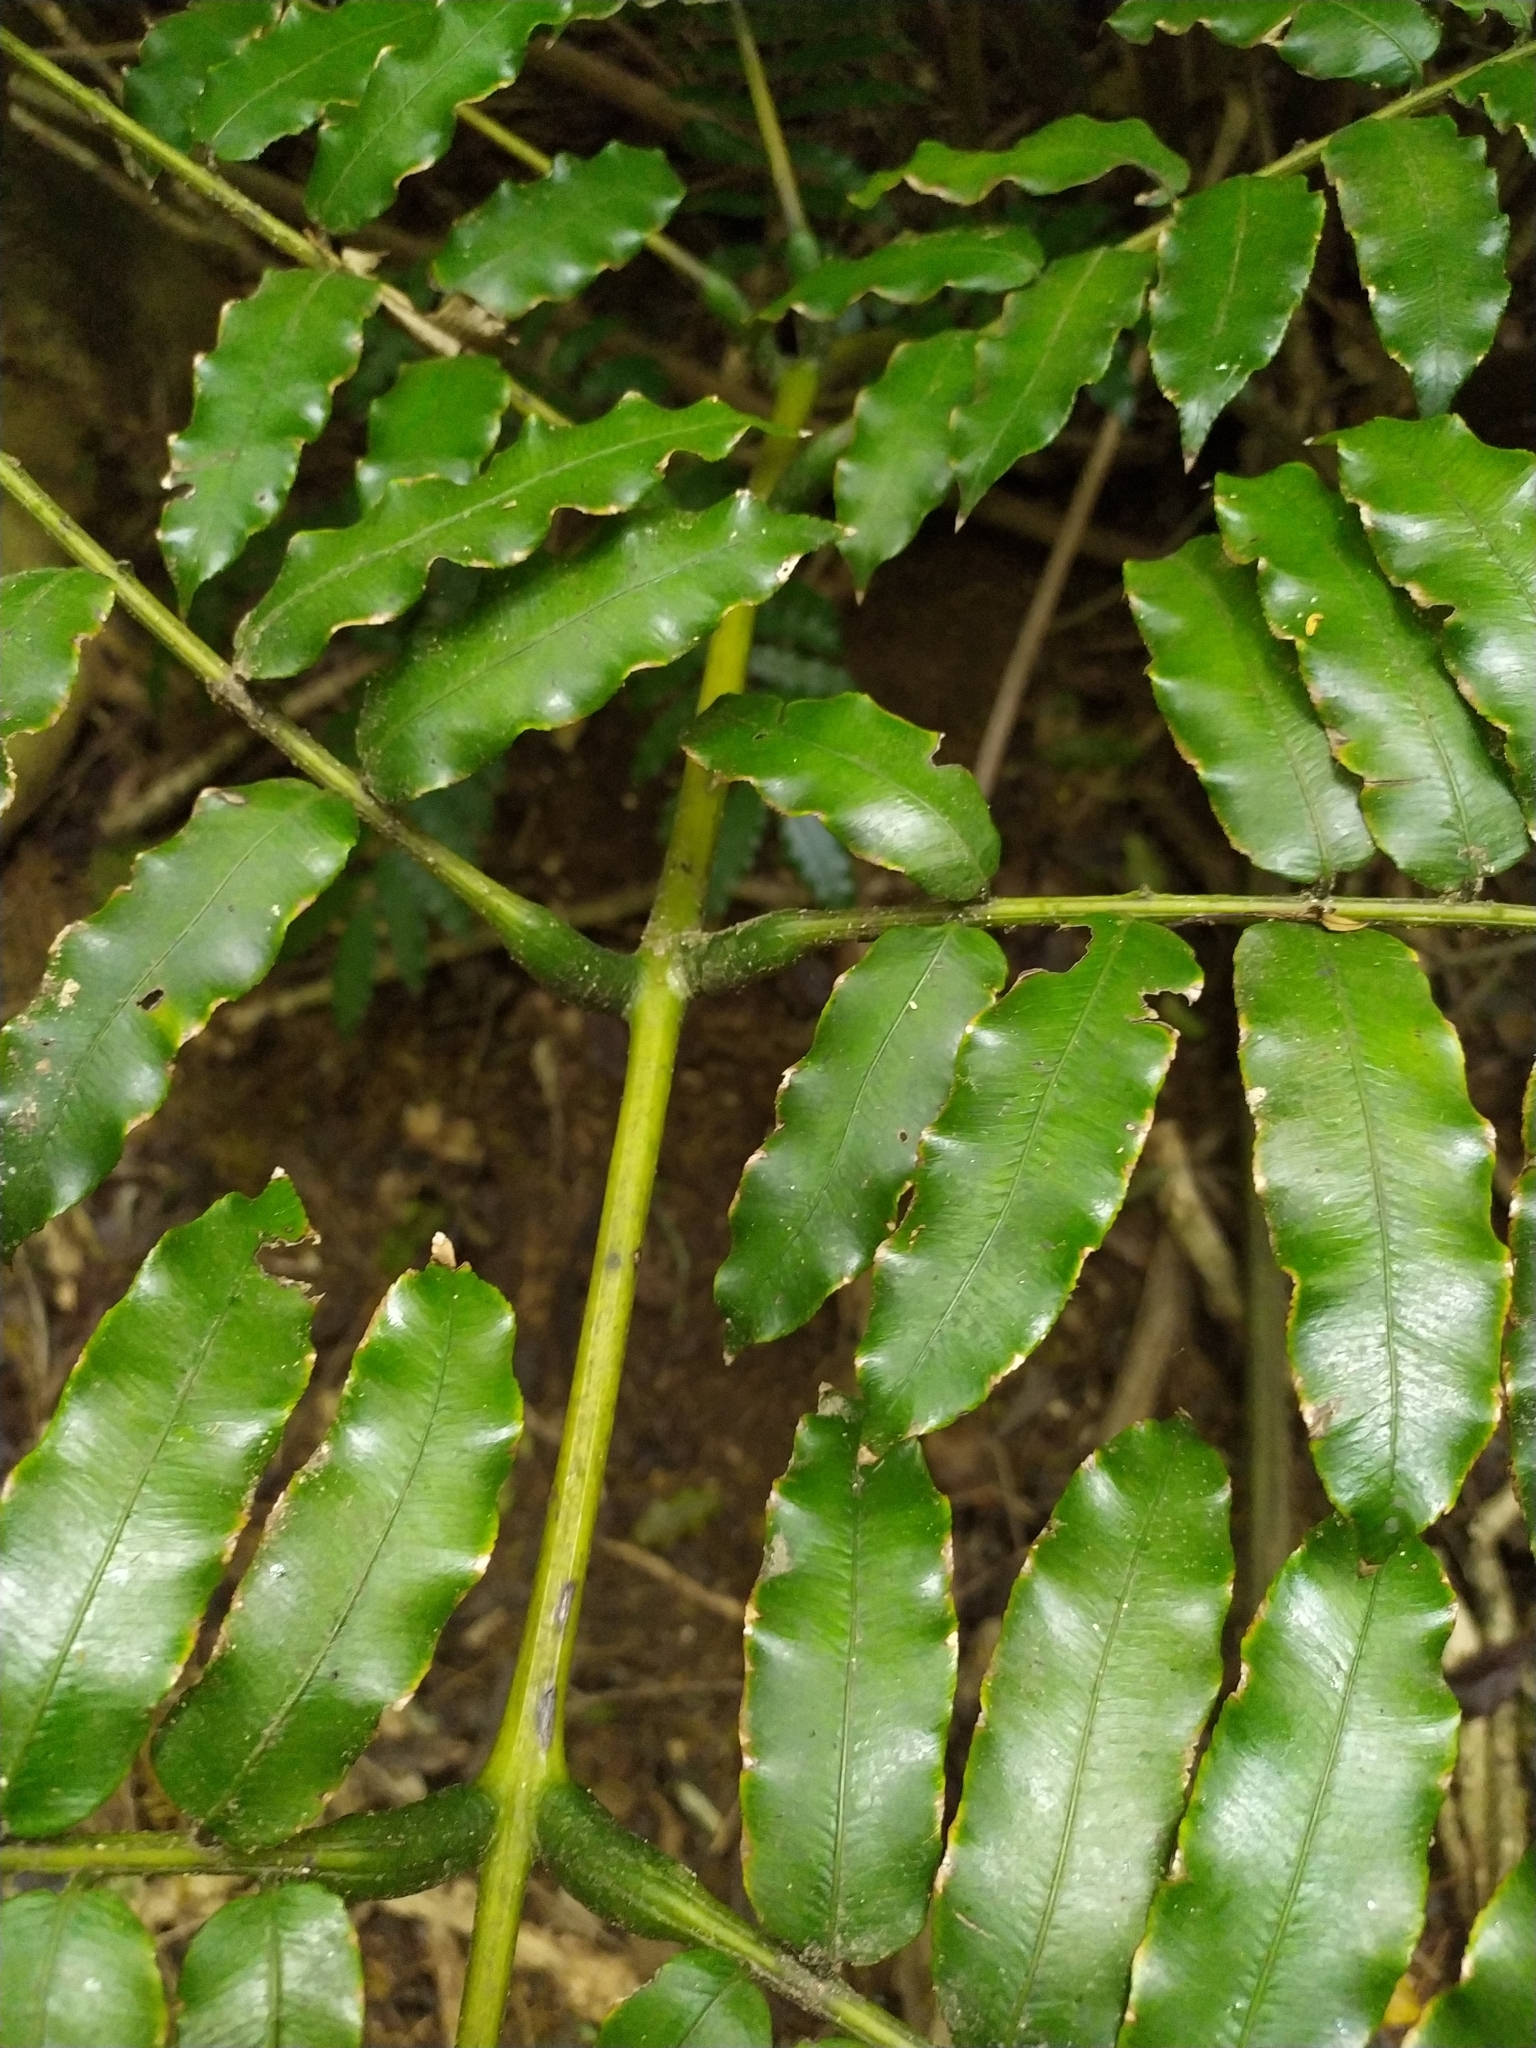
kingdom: Plantae
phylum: Tracheophyta
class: Polypodiopsida
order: Marattiales
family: Marattiaceae
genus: Ptisana
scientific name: Ptisana salicina
